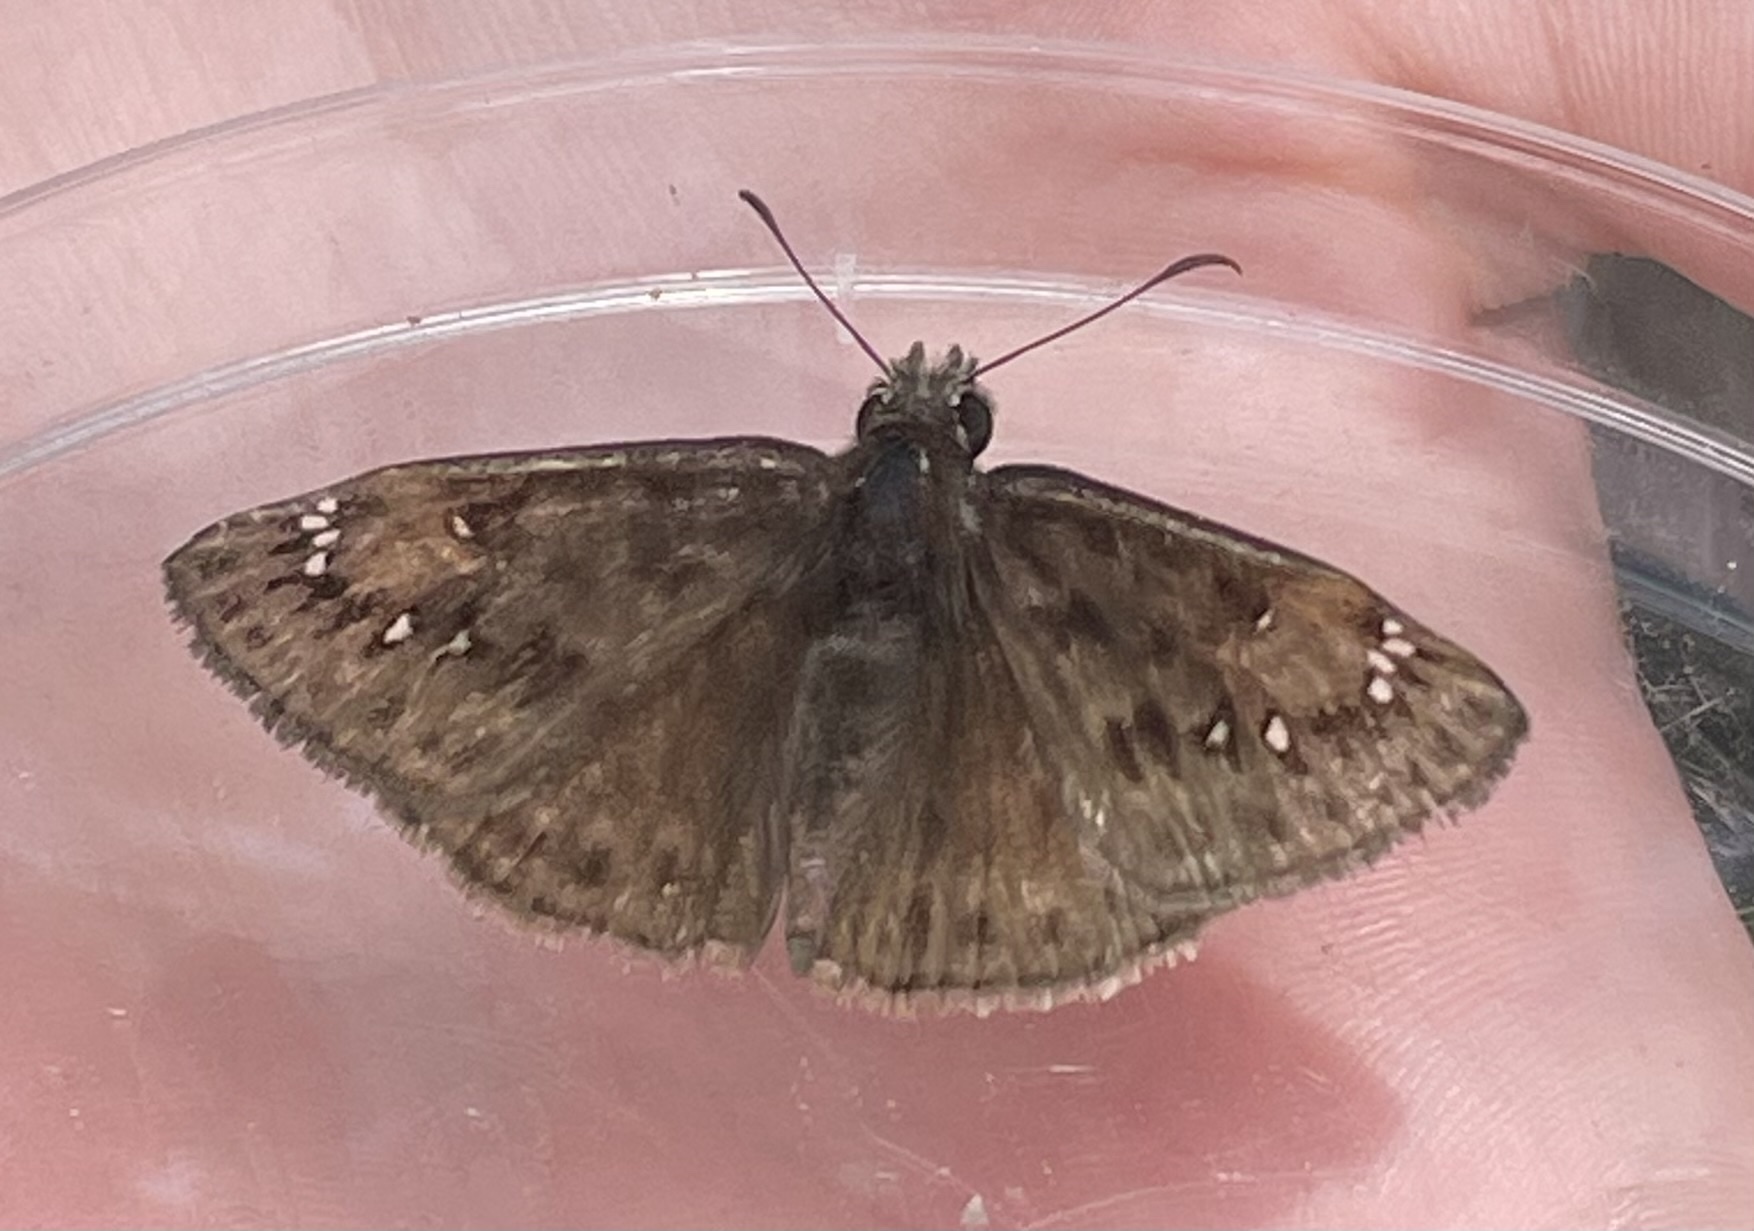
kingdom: Animalia
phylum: Arthropoda
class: Insecta
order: Lepidoptera
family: Hesperiidae
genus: Erynnis
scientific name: Erynnis horatius
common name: Horace's duskywing
